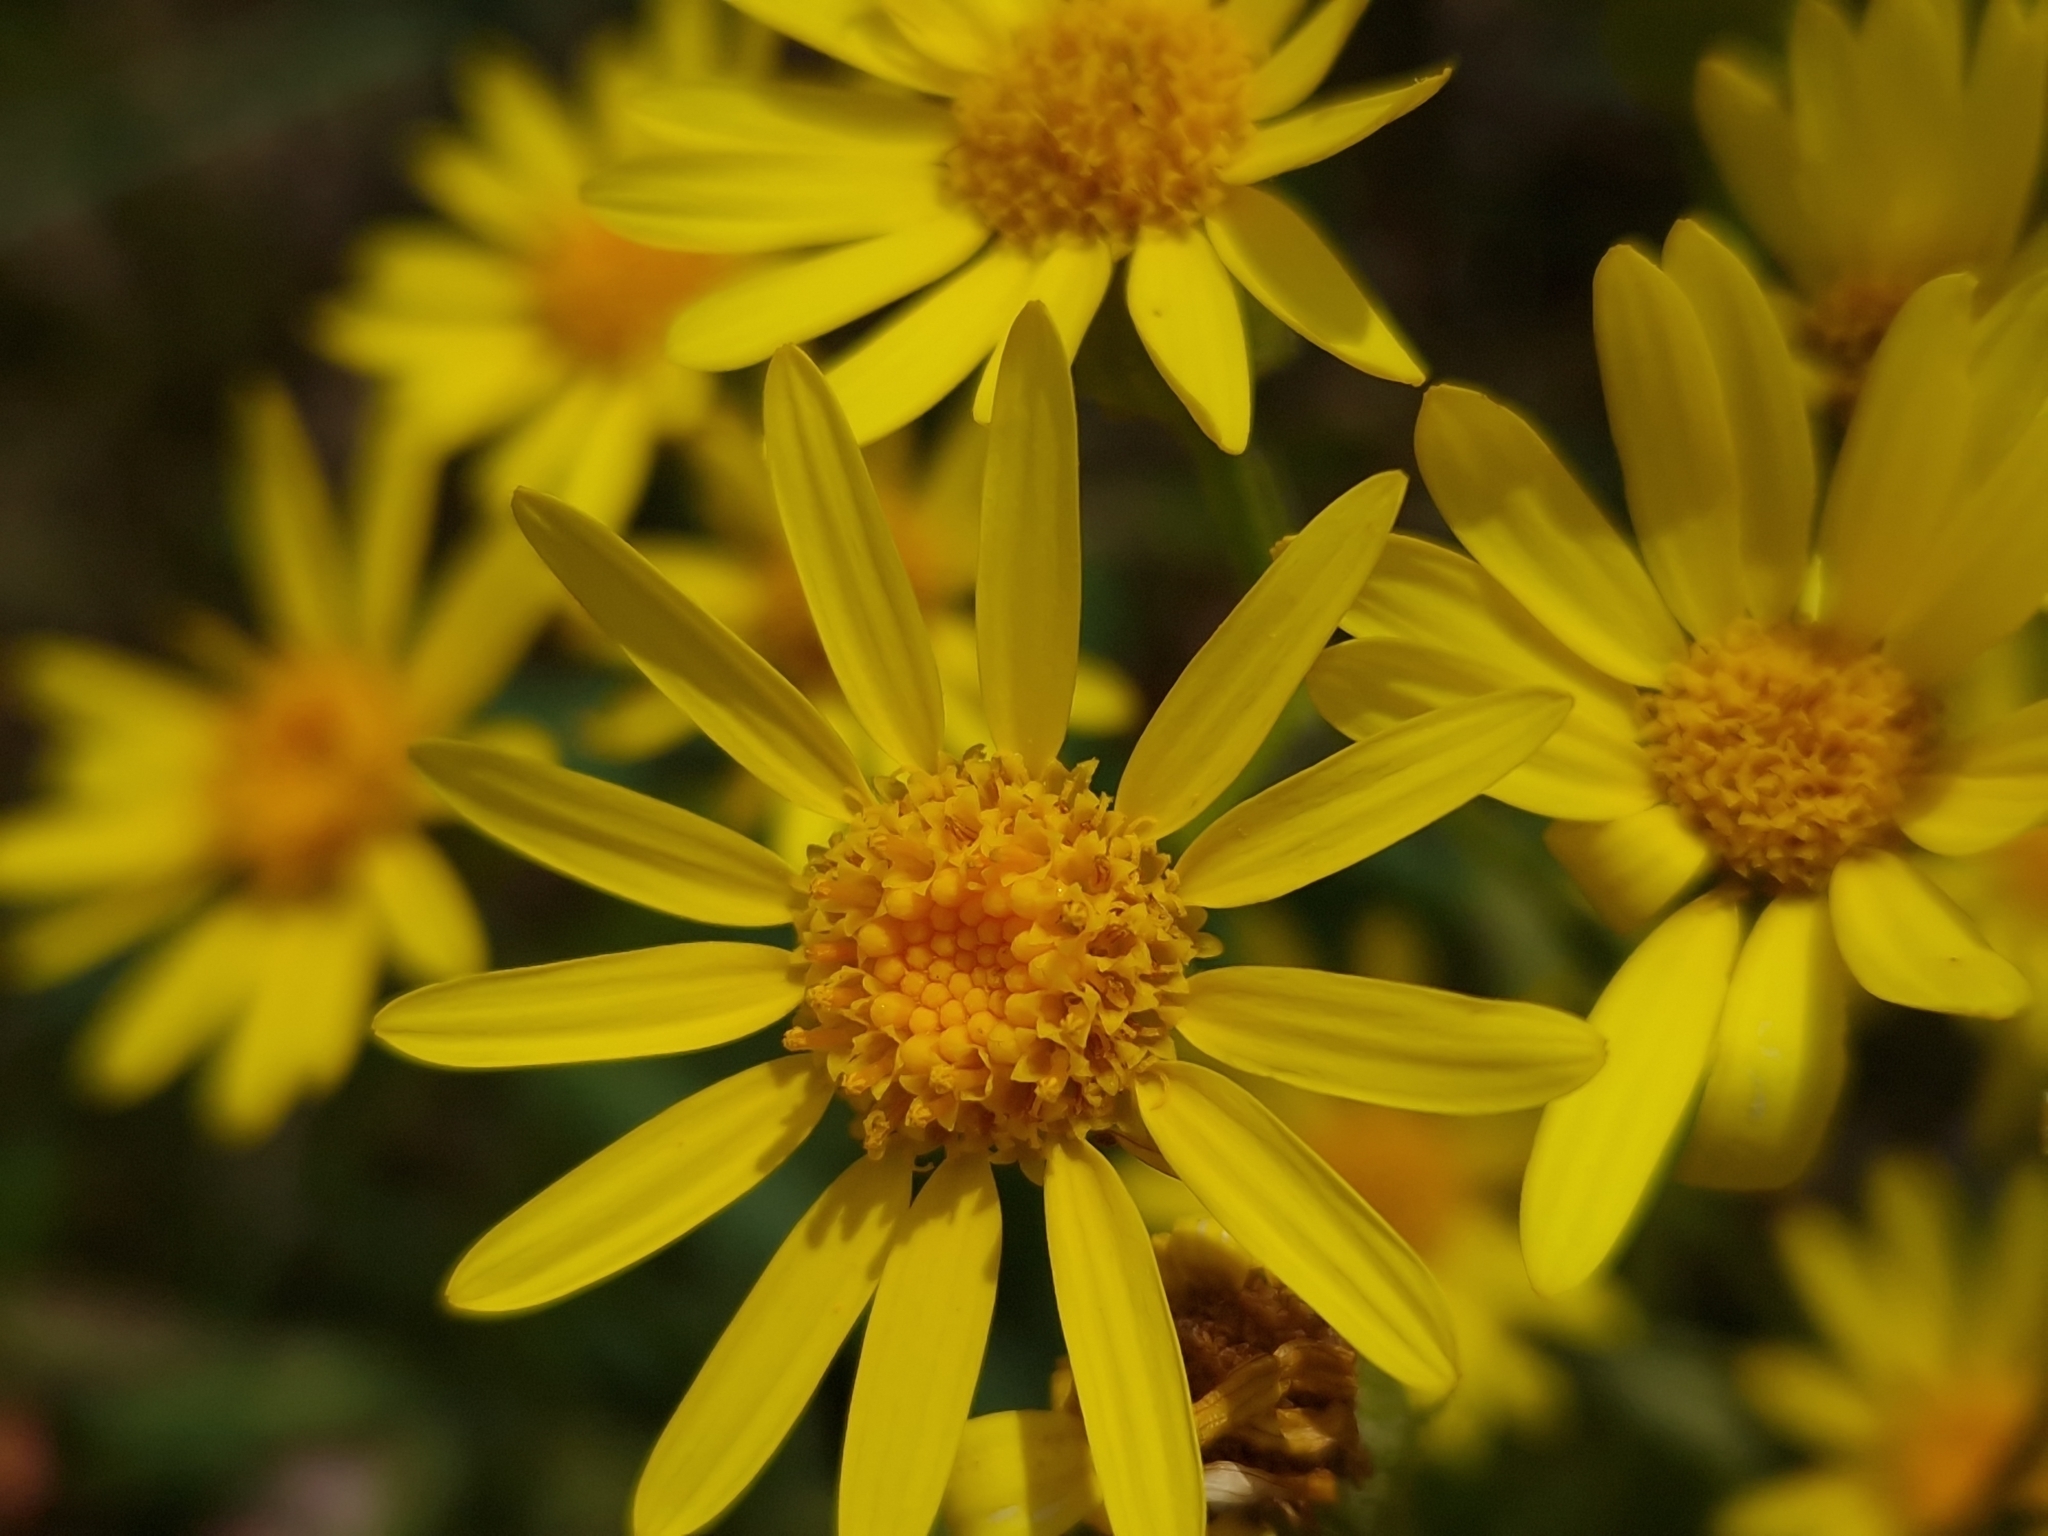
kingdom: Plantae
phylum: Tracheophyta
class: Magnoliopsida
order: Asterales
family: Asteraceae
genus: Senecio
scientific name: Senecio grisebachii
